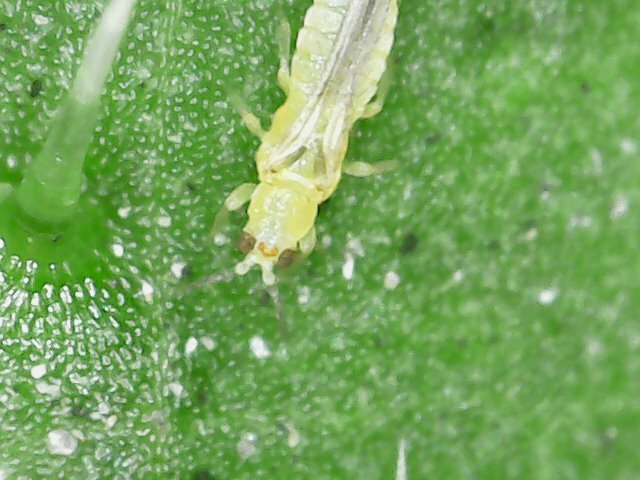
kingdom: Animalia
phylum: Arthropoda
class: Insecta
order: Thysanoptera
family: Thripidae
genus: Scirtothrips
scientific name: Scirtothrips dorsalis
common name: Thrips
